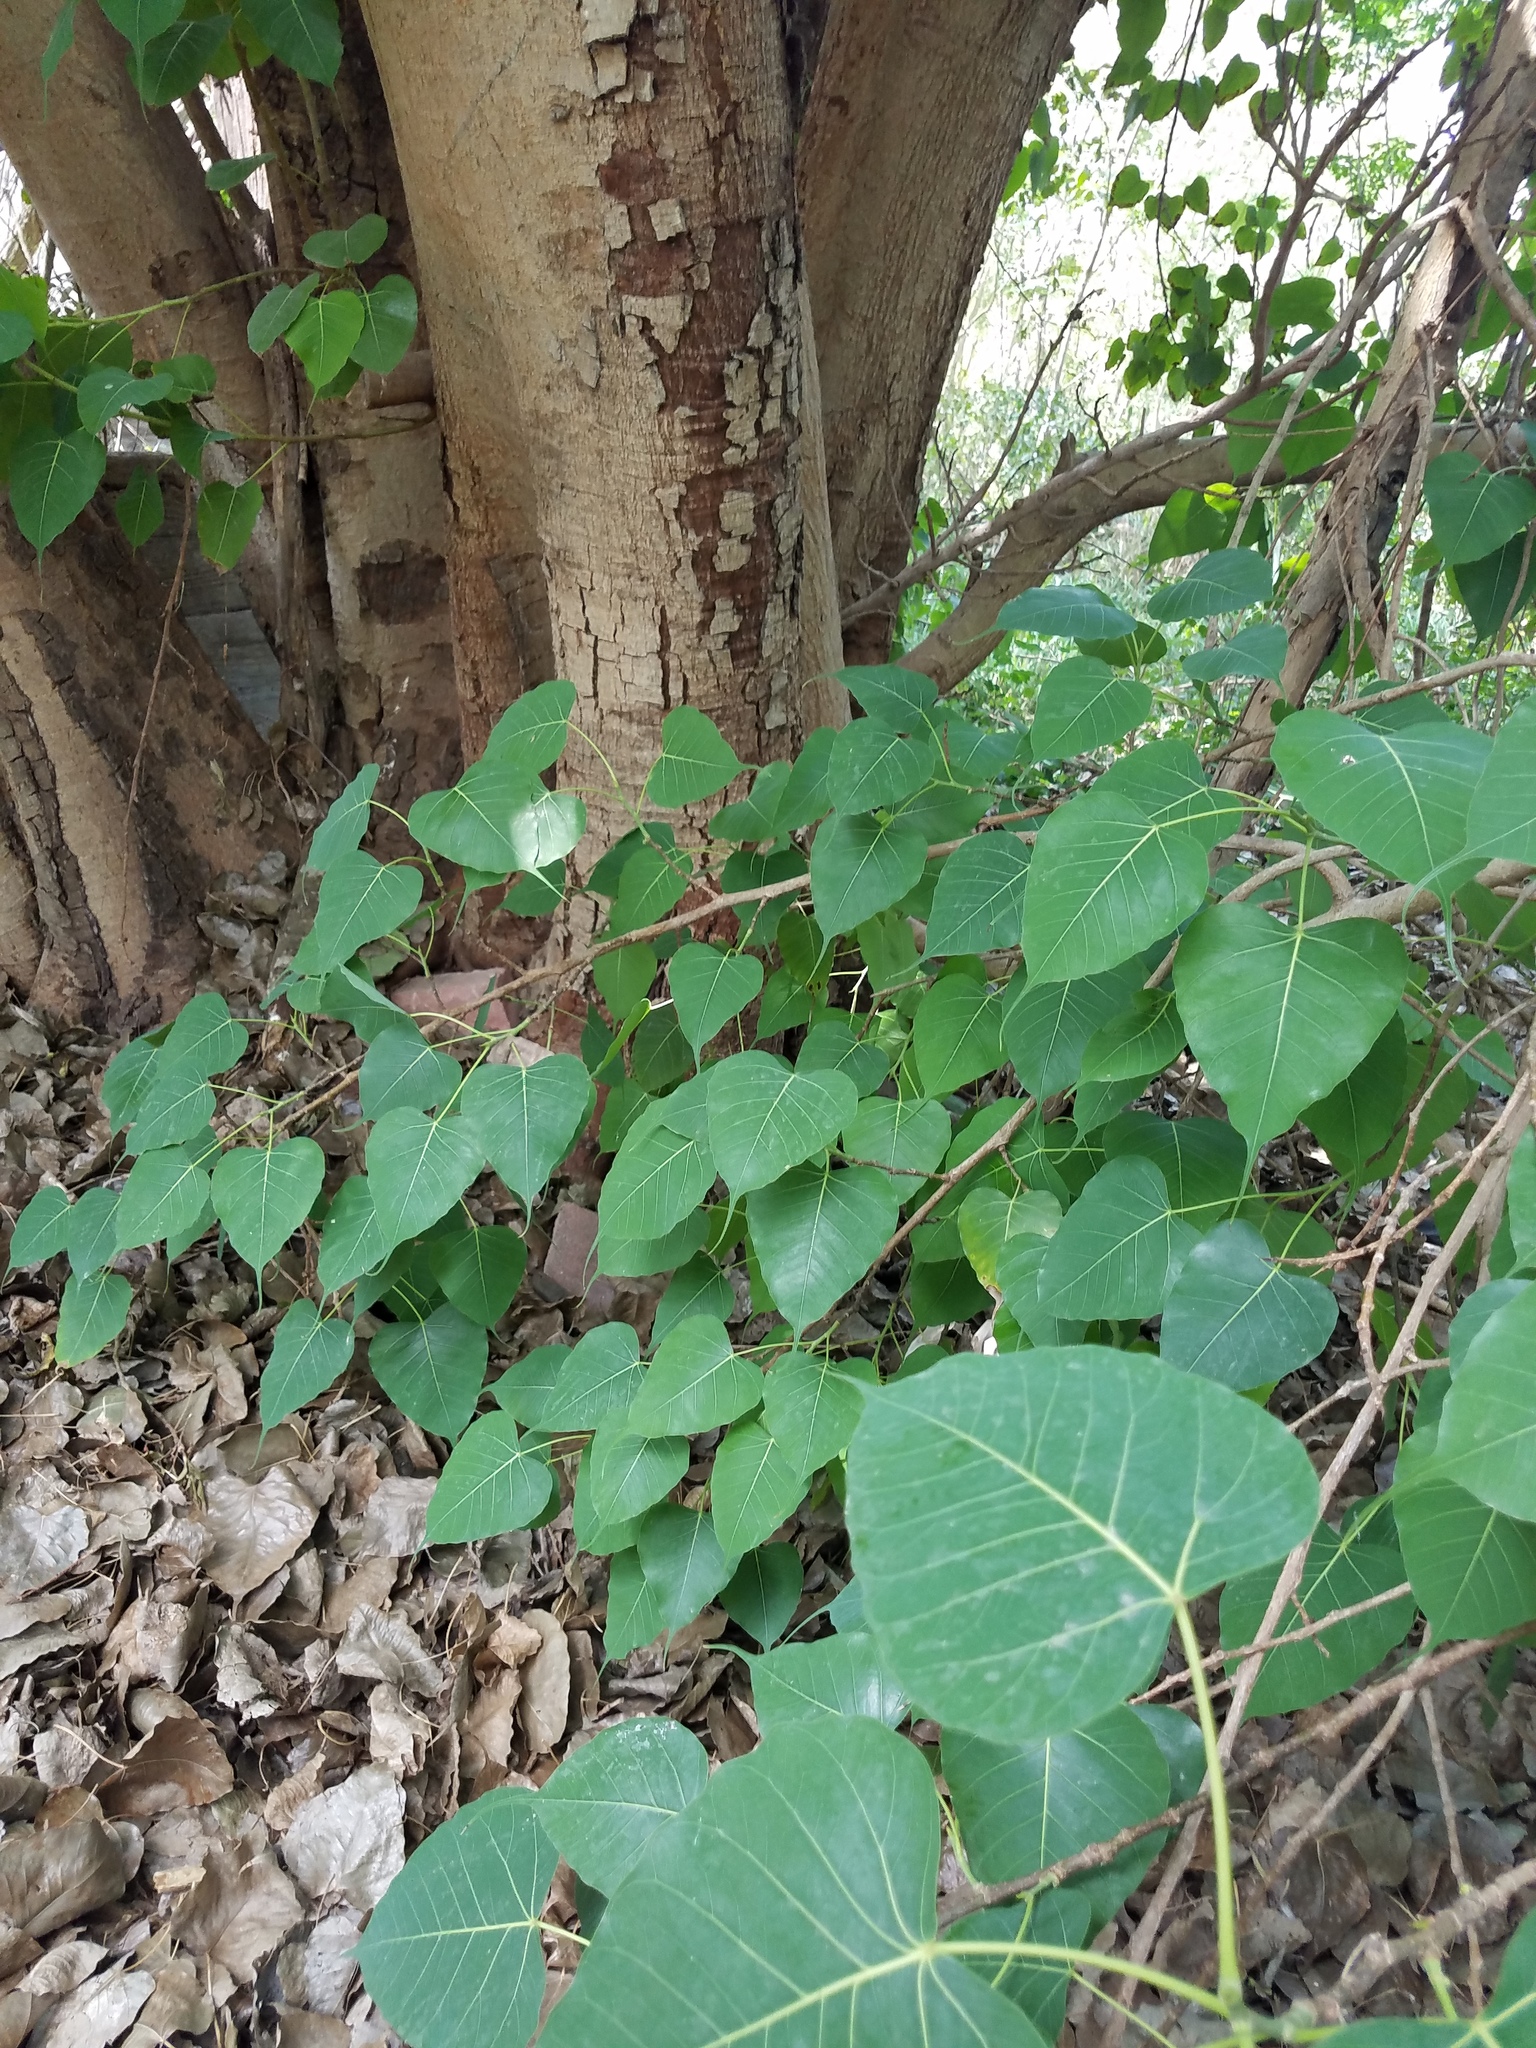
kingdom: Plantae
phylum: Tracheophyta
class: Magnoliopsida
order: Rosales
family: Moraceae
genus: Ficus
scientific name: Ficus religiosa
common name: Bodhi tree
